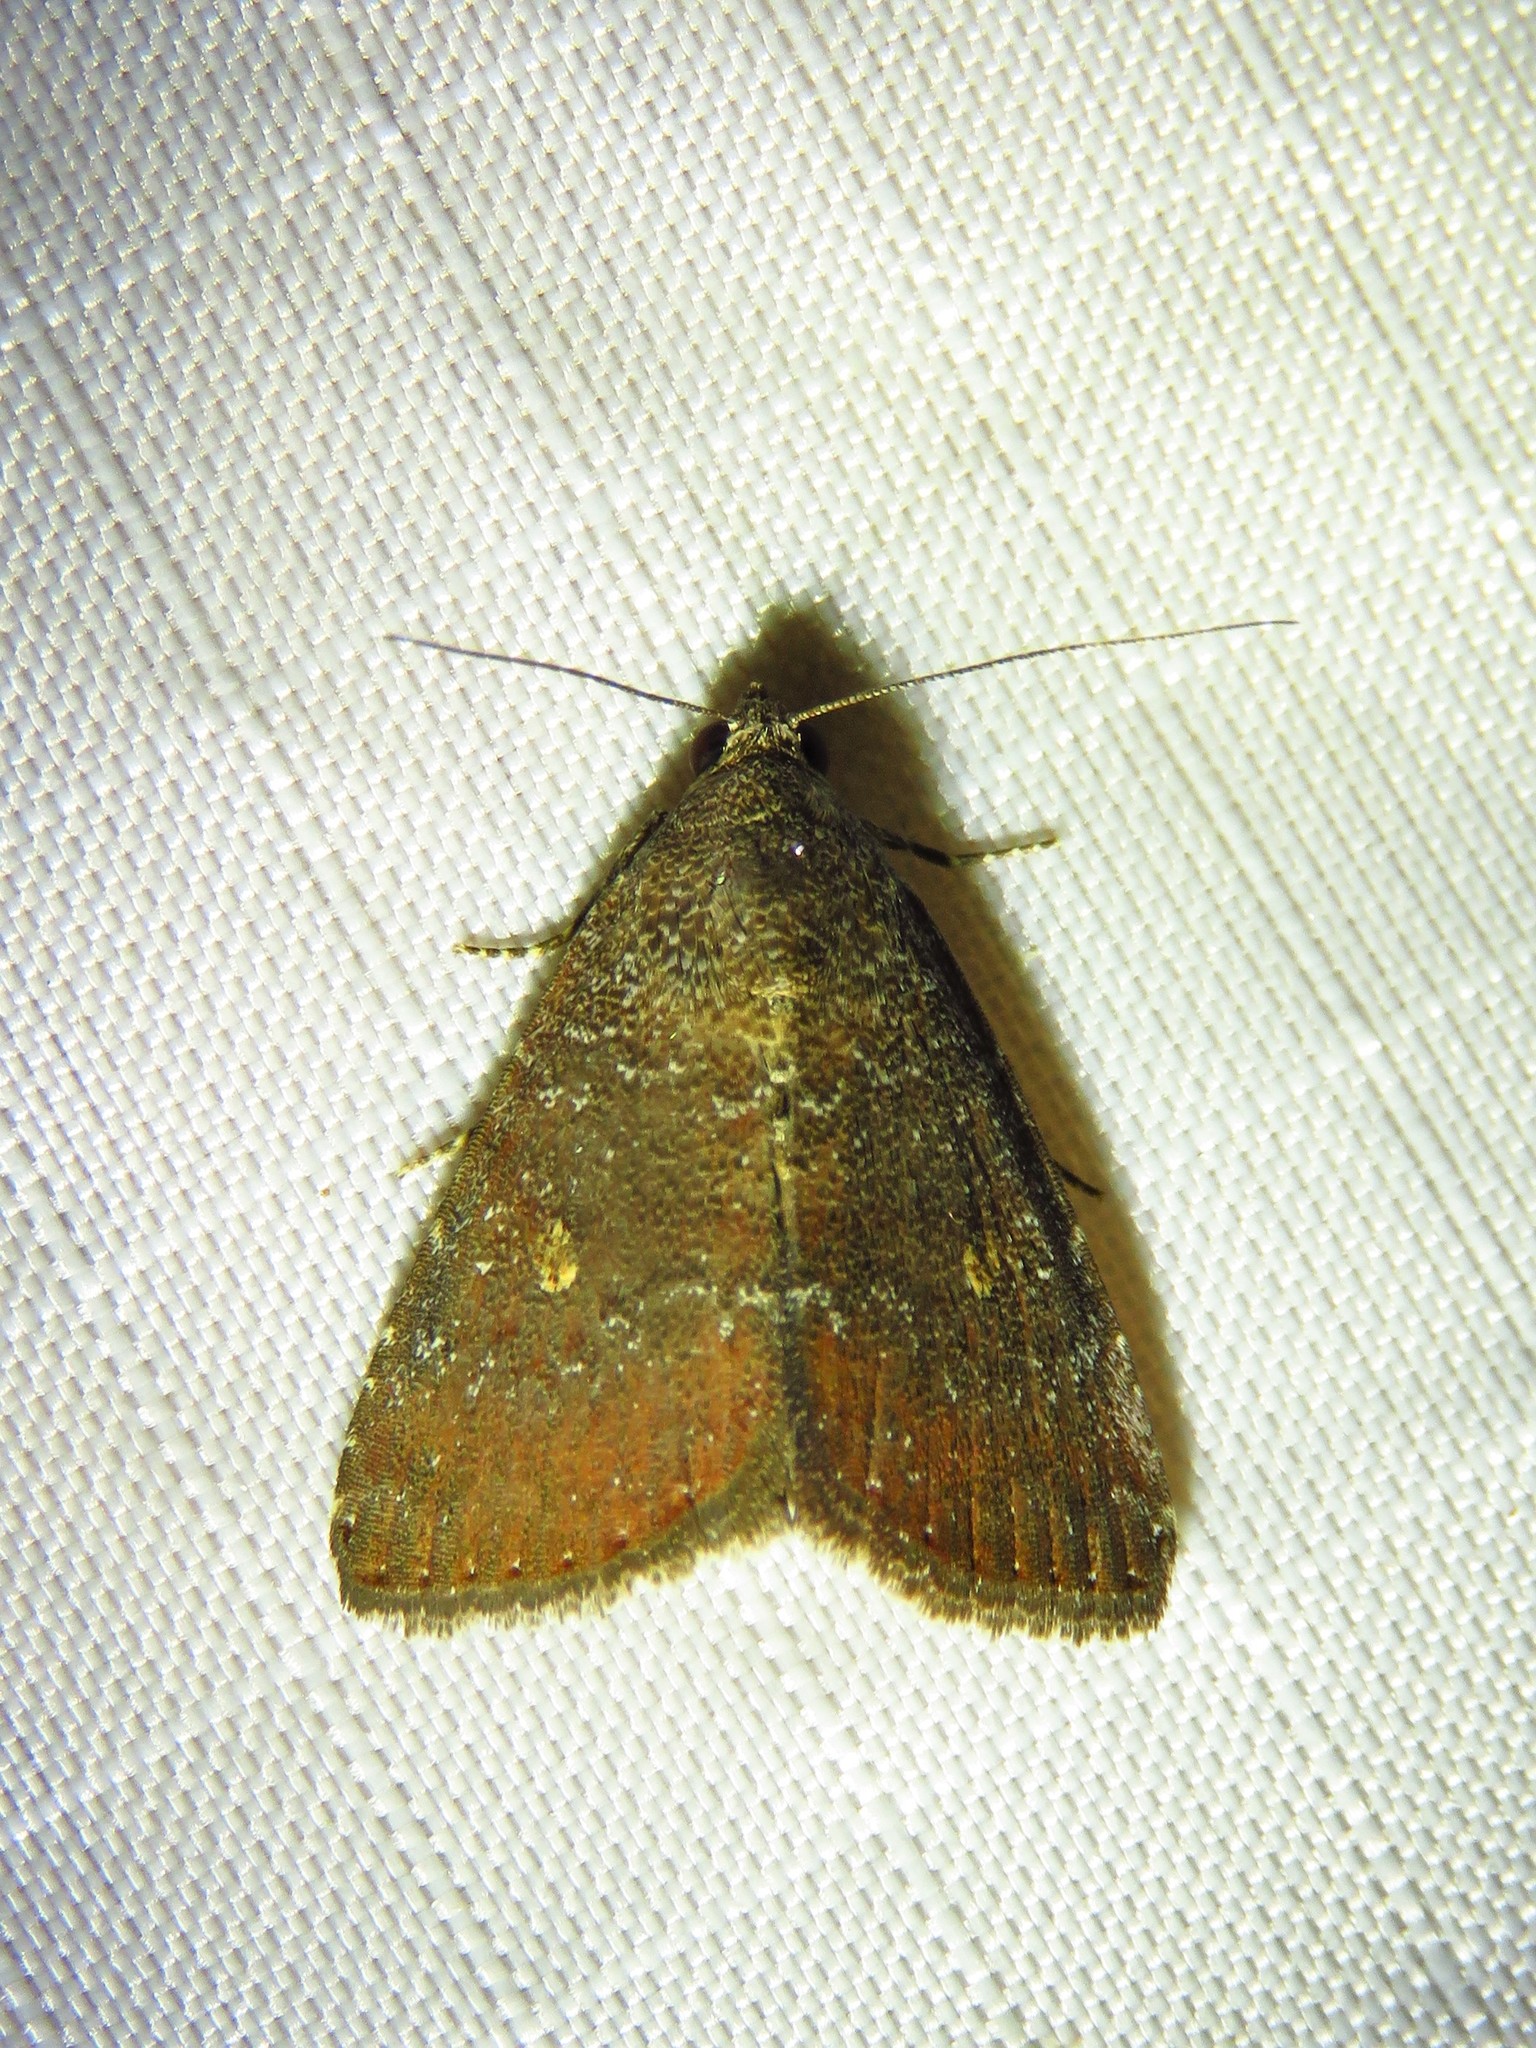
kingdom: Animalia
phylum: Arthropoda
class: Insecta
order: Lepidoptera
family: Noctuidae
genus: Amyna
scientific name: Amyna stricta
